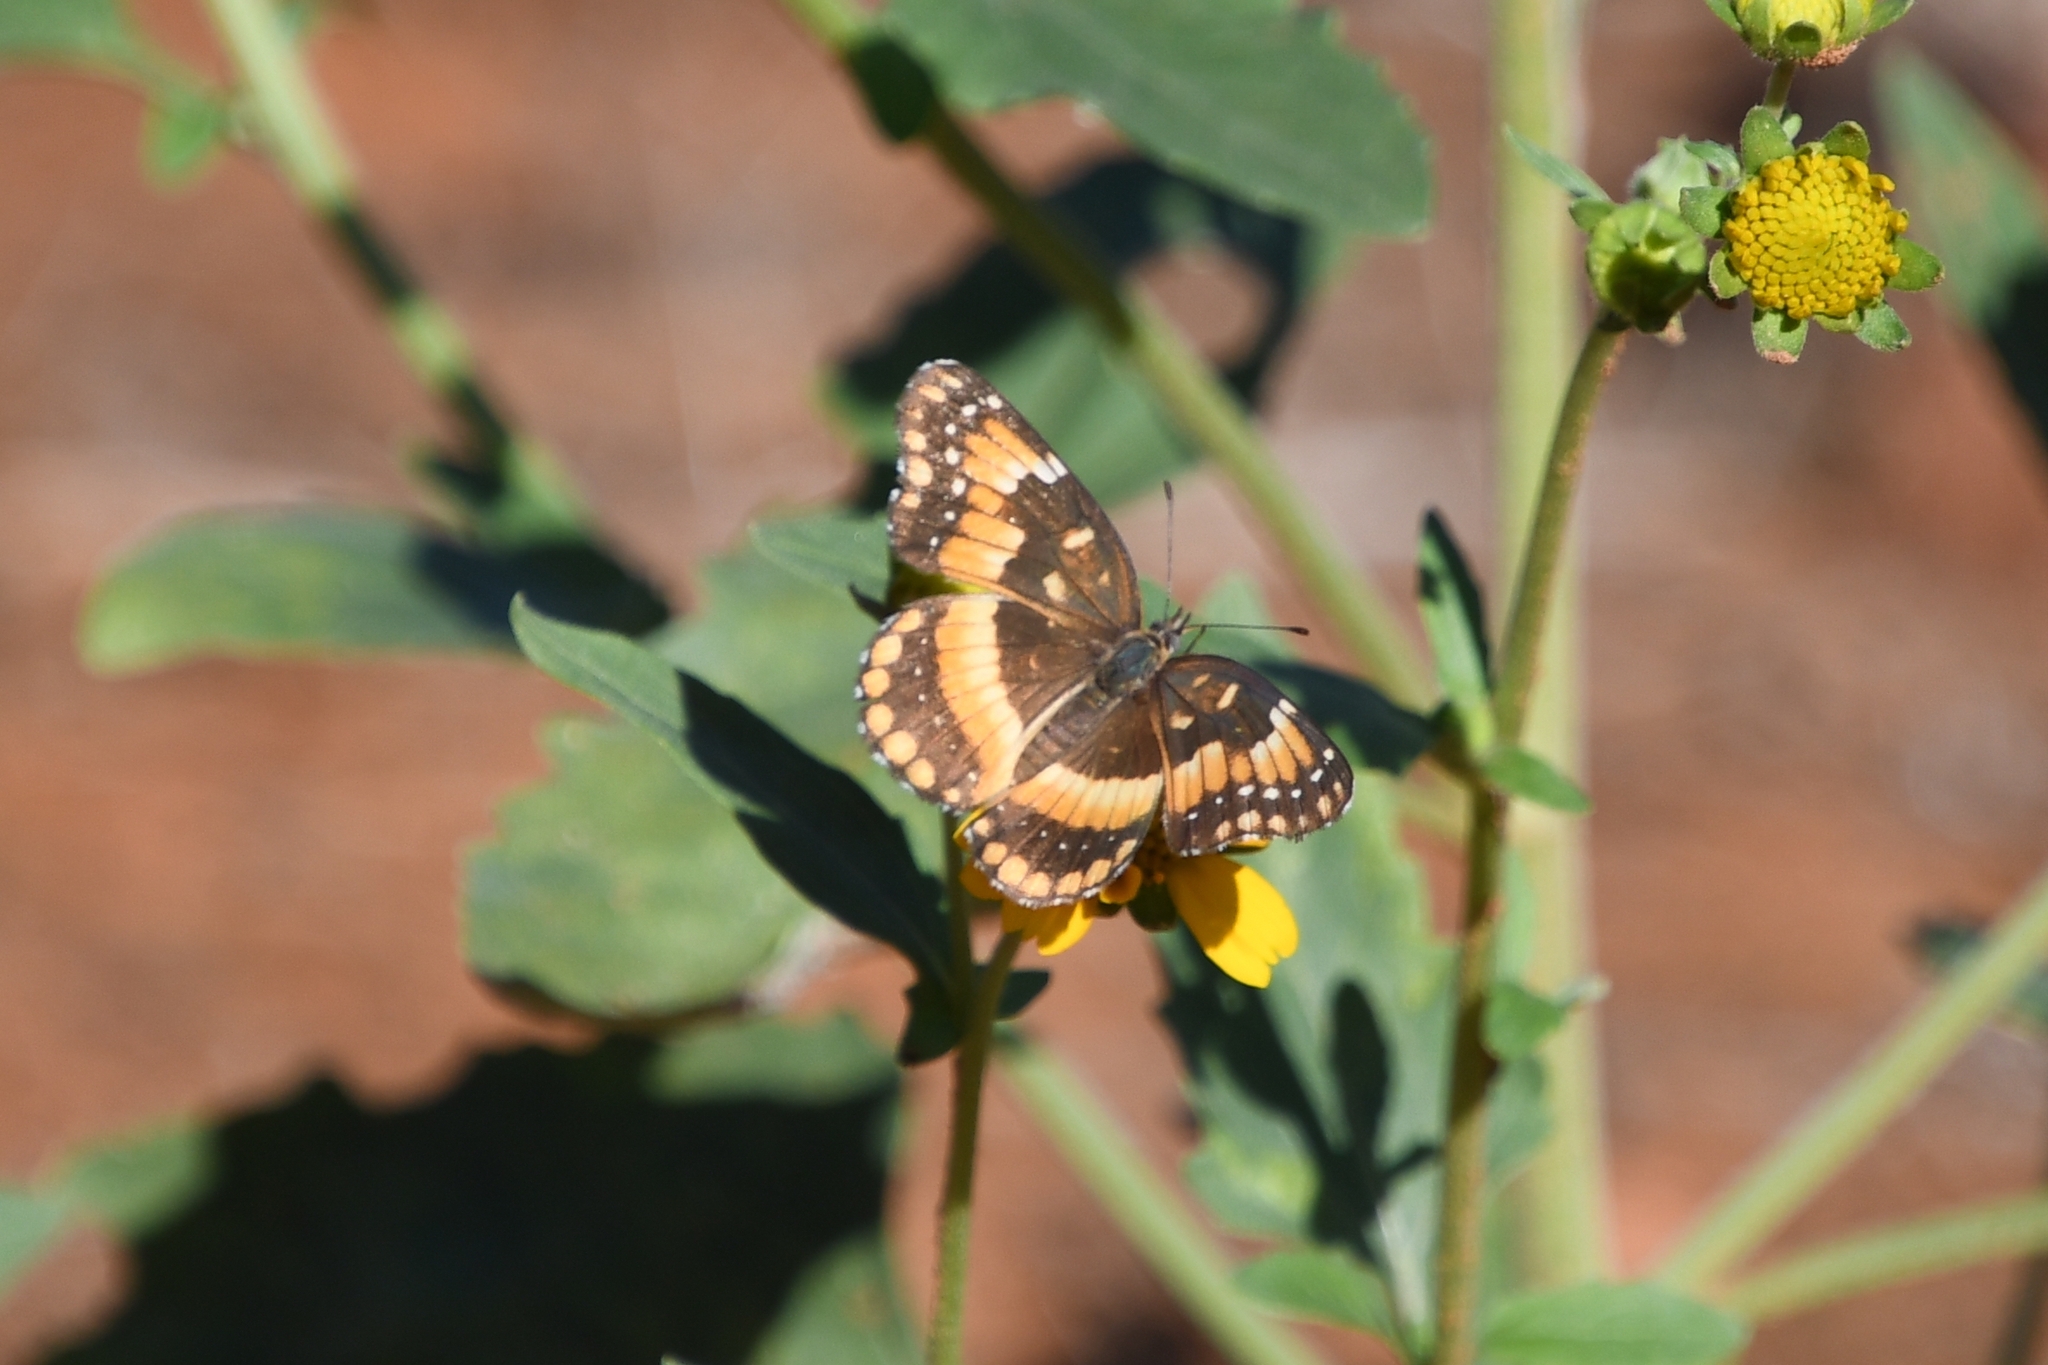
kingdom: Animalia
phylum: Arthropoda
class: Insecta
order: Lepidoptera
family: Nymphalidae
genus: Chlosyne
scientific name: Chlosyne californica
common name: California patch
